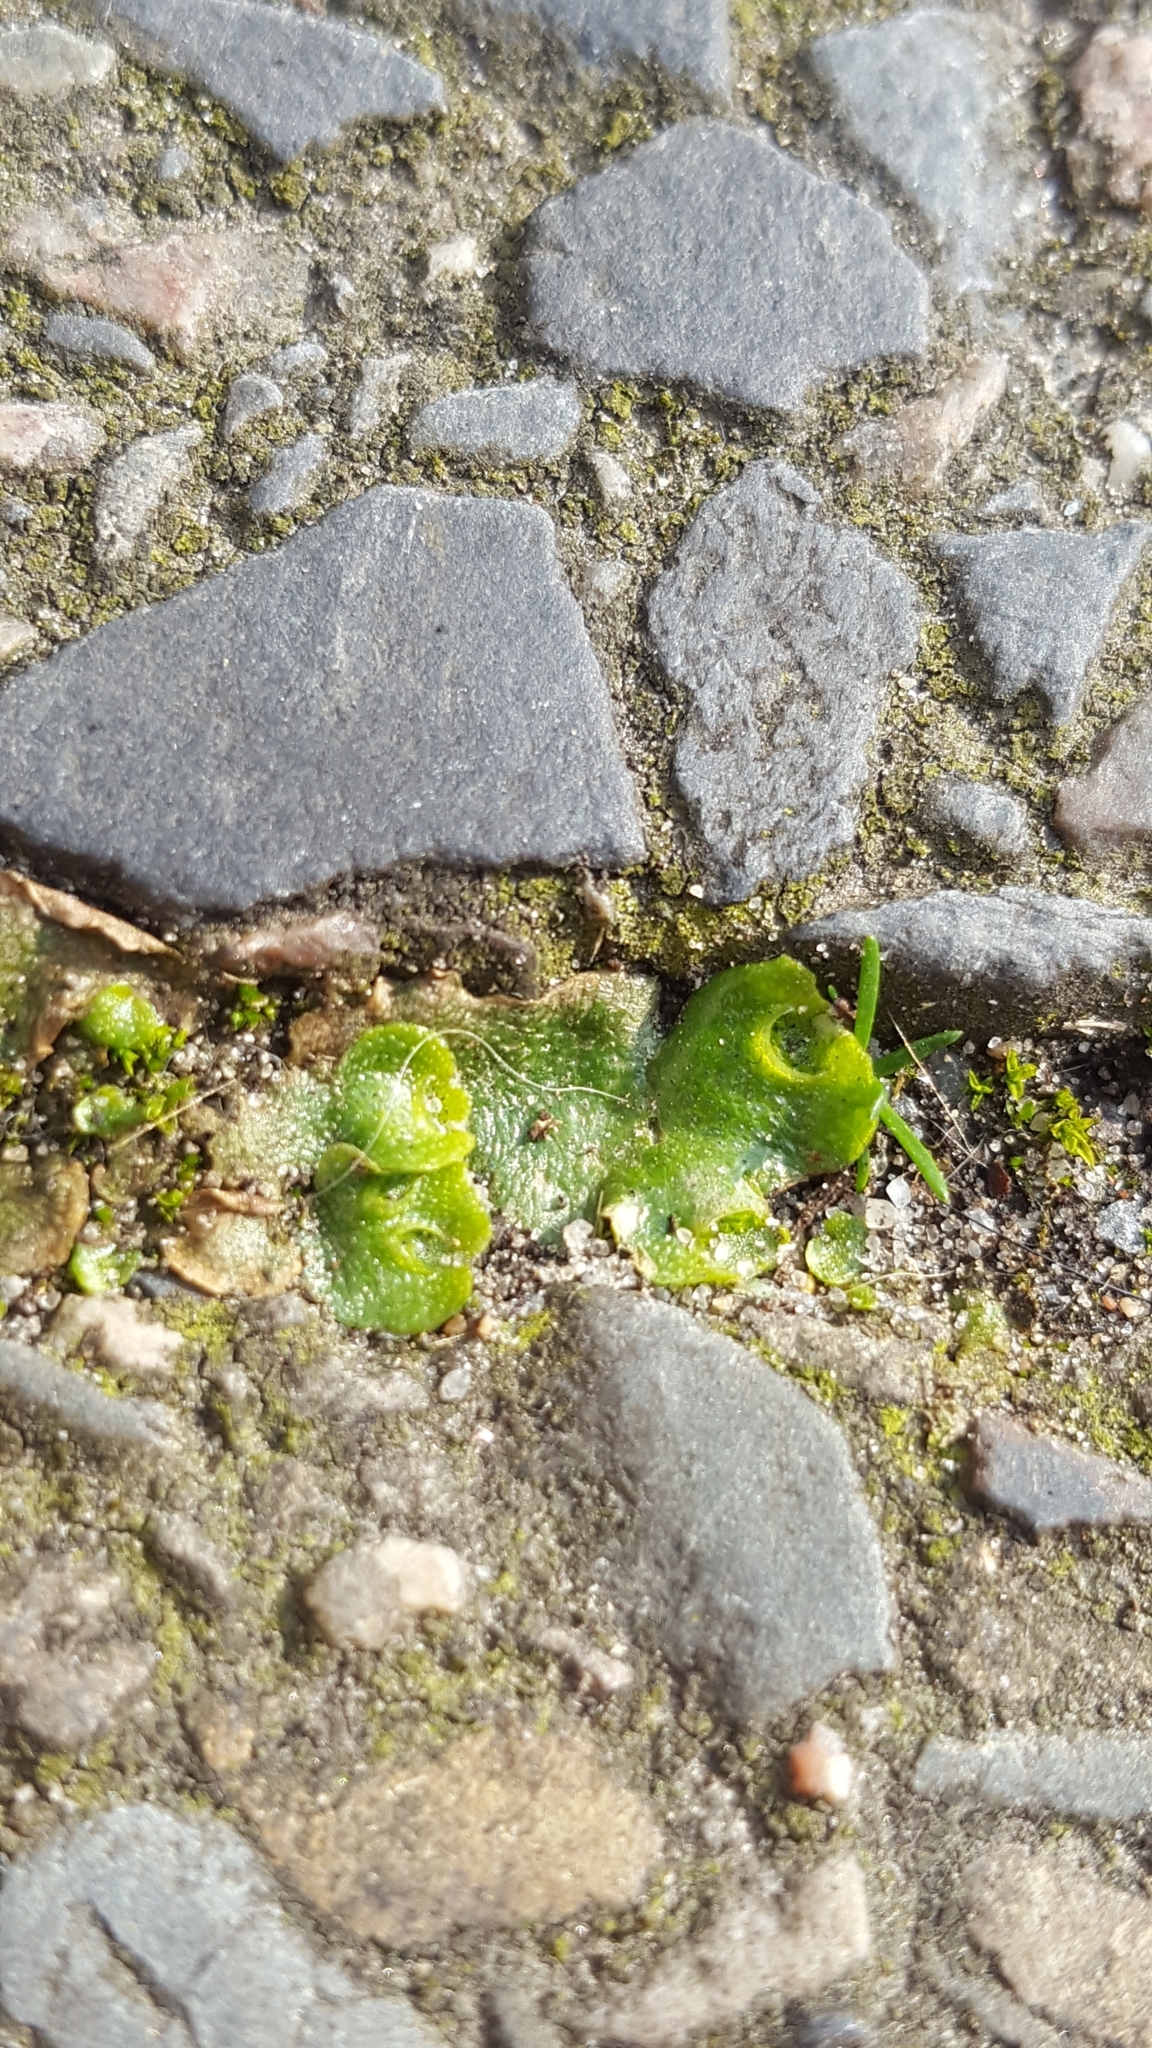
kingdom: Plantae
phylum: Marchantiophyta
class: Marchantiopsida
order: Lunulariales
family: Lunulariaceae
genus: Lunularia
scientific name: Lunularia cruciata
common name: Crescent-cup liverwort
